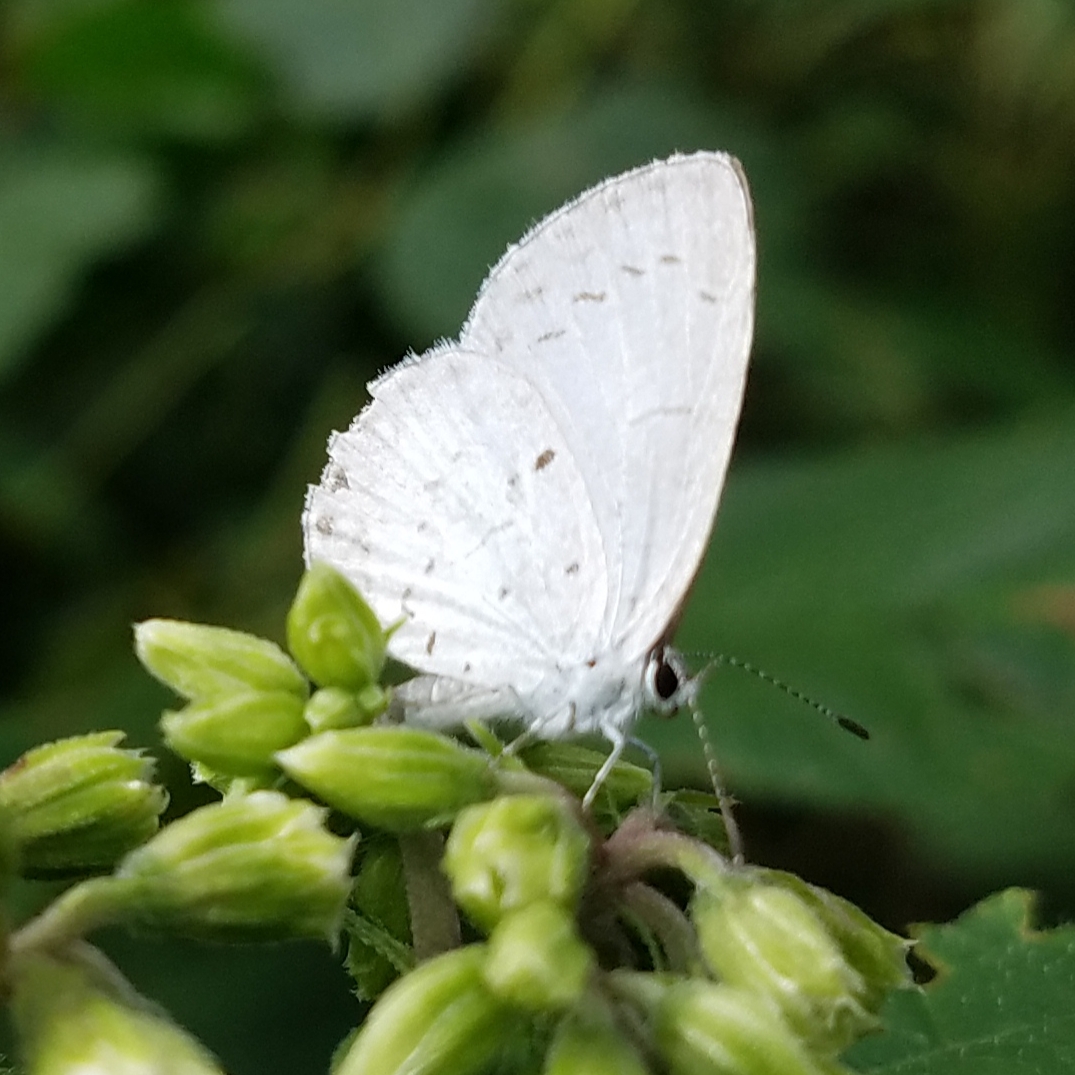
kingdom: Animalia
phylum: Arthropoda
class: Insecta
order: Lepidoptera
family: Lycaenidae
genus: Cyaniris
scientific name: Cyaniris neglecta
